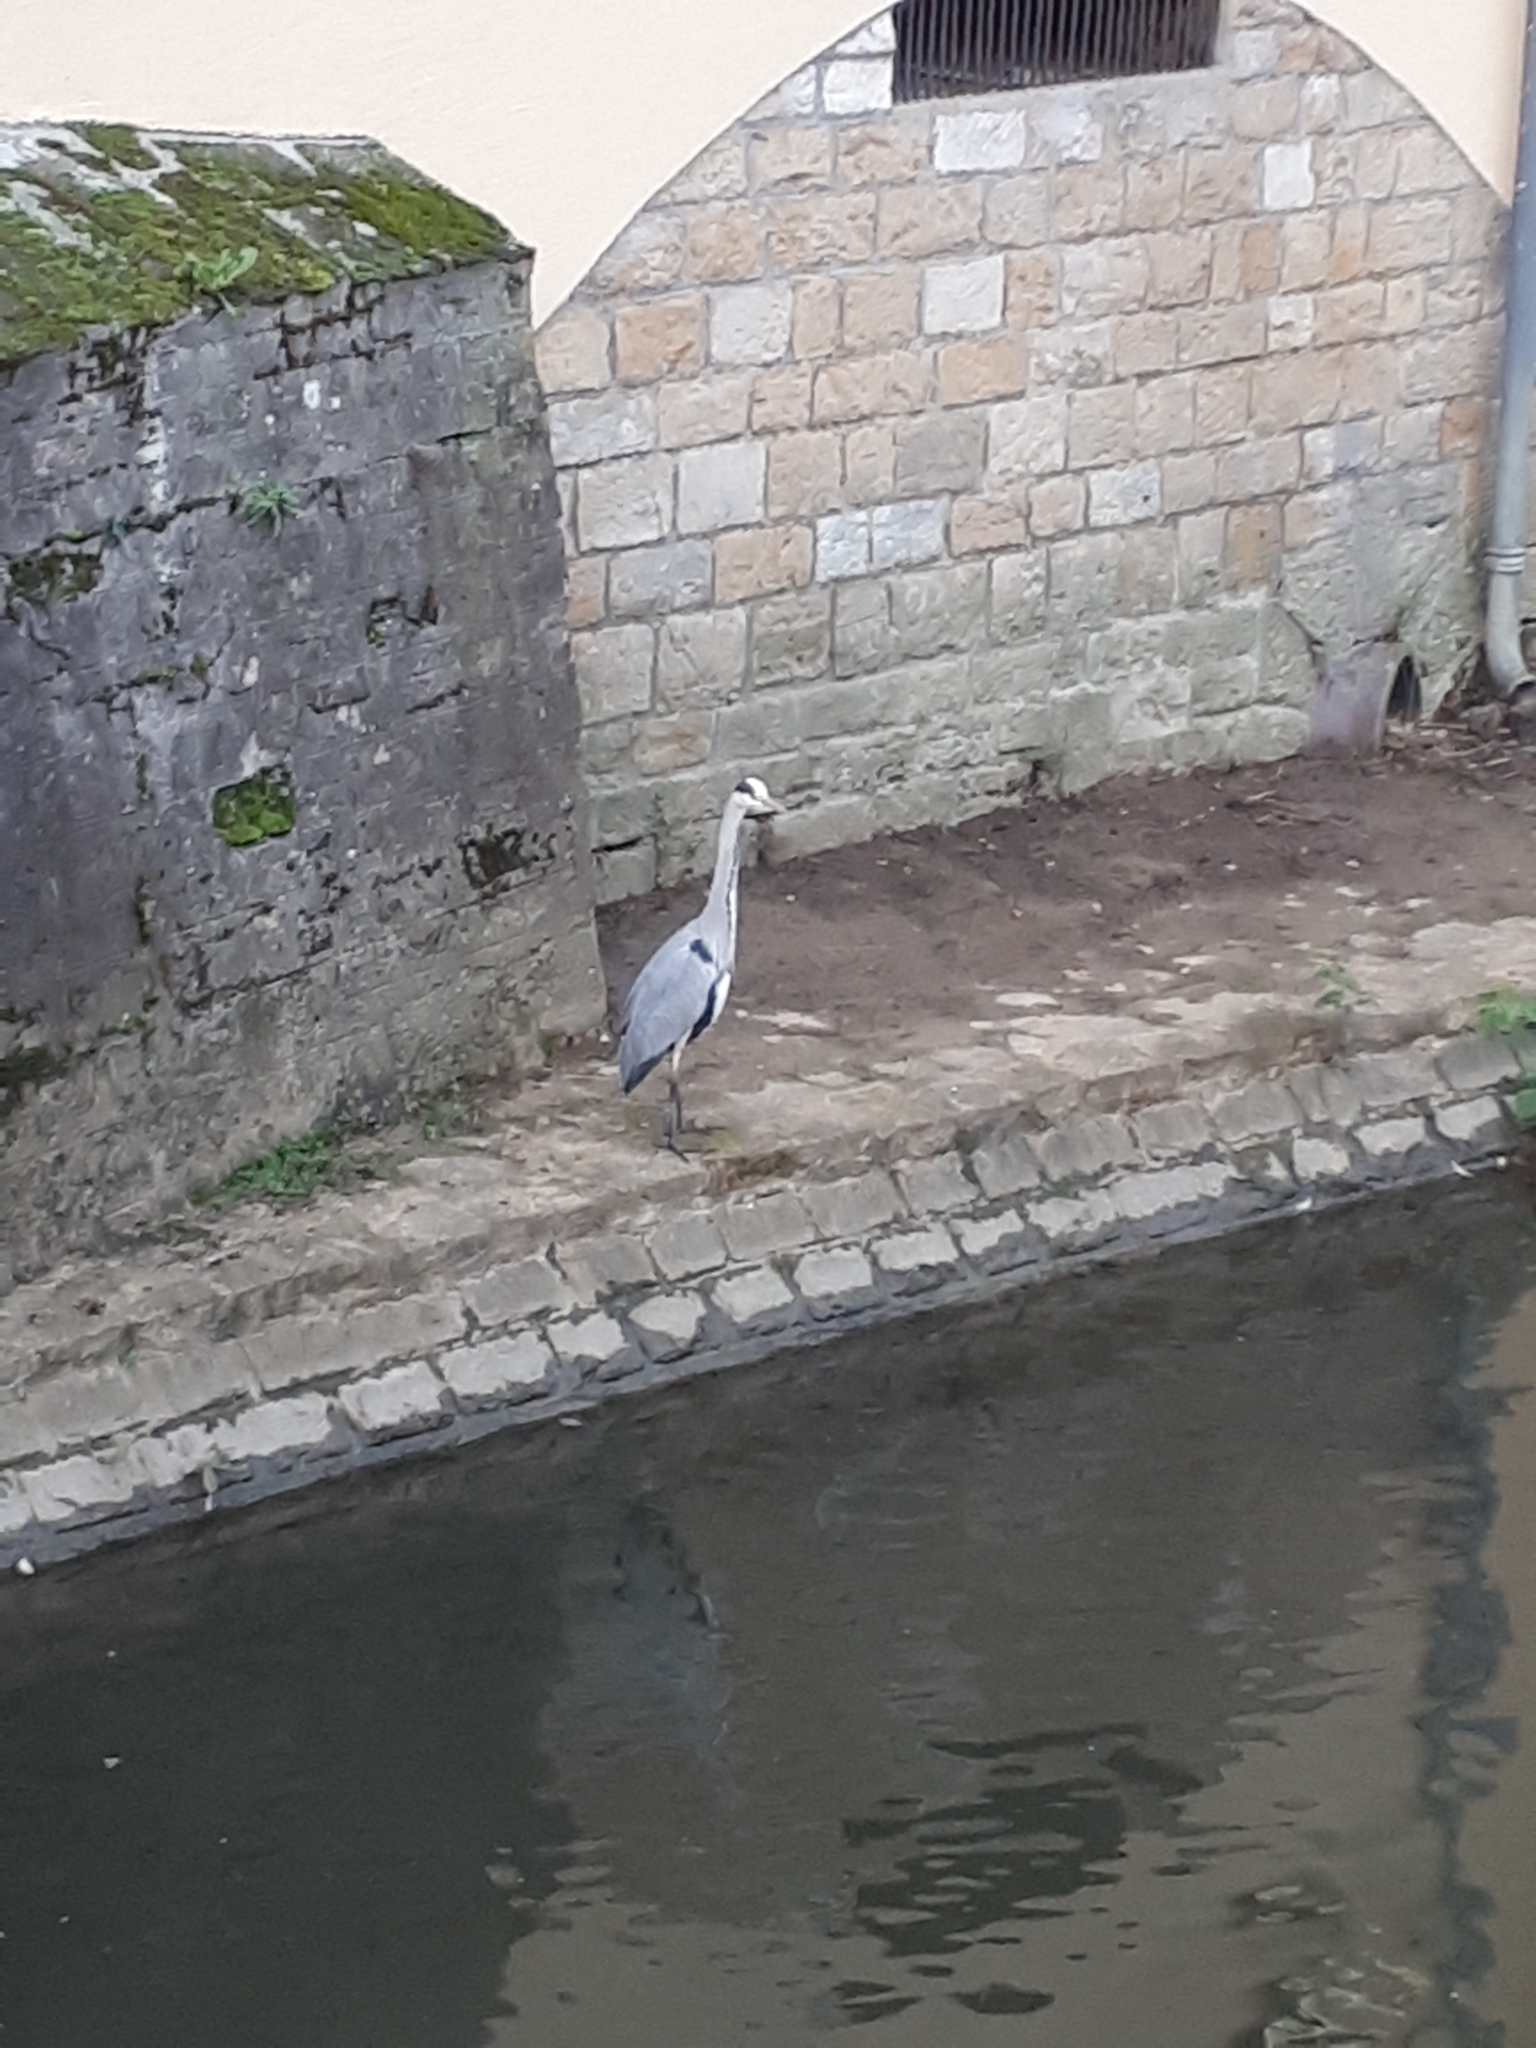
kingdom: Animalia
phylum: Chordata
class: Aves
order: Pelecaniformes
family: Ardeidae
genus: Ardea
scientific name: Ardea cinerea
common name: Grey heron
